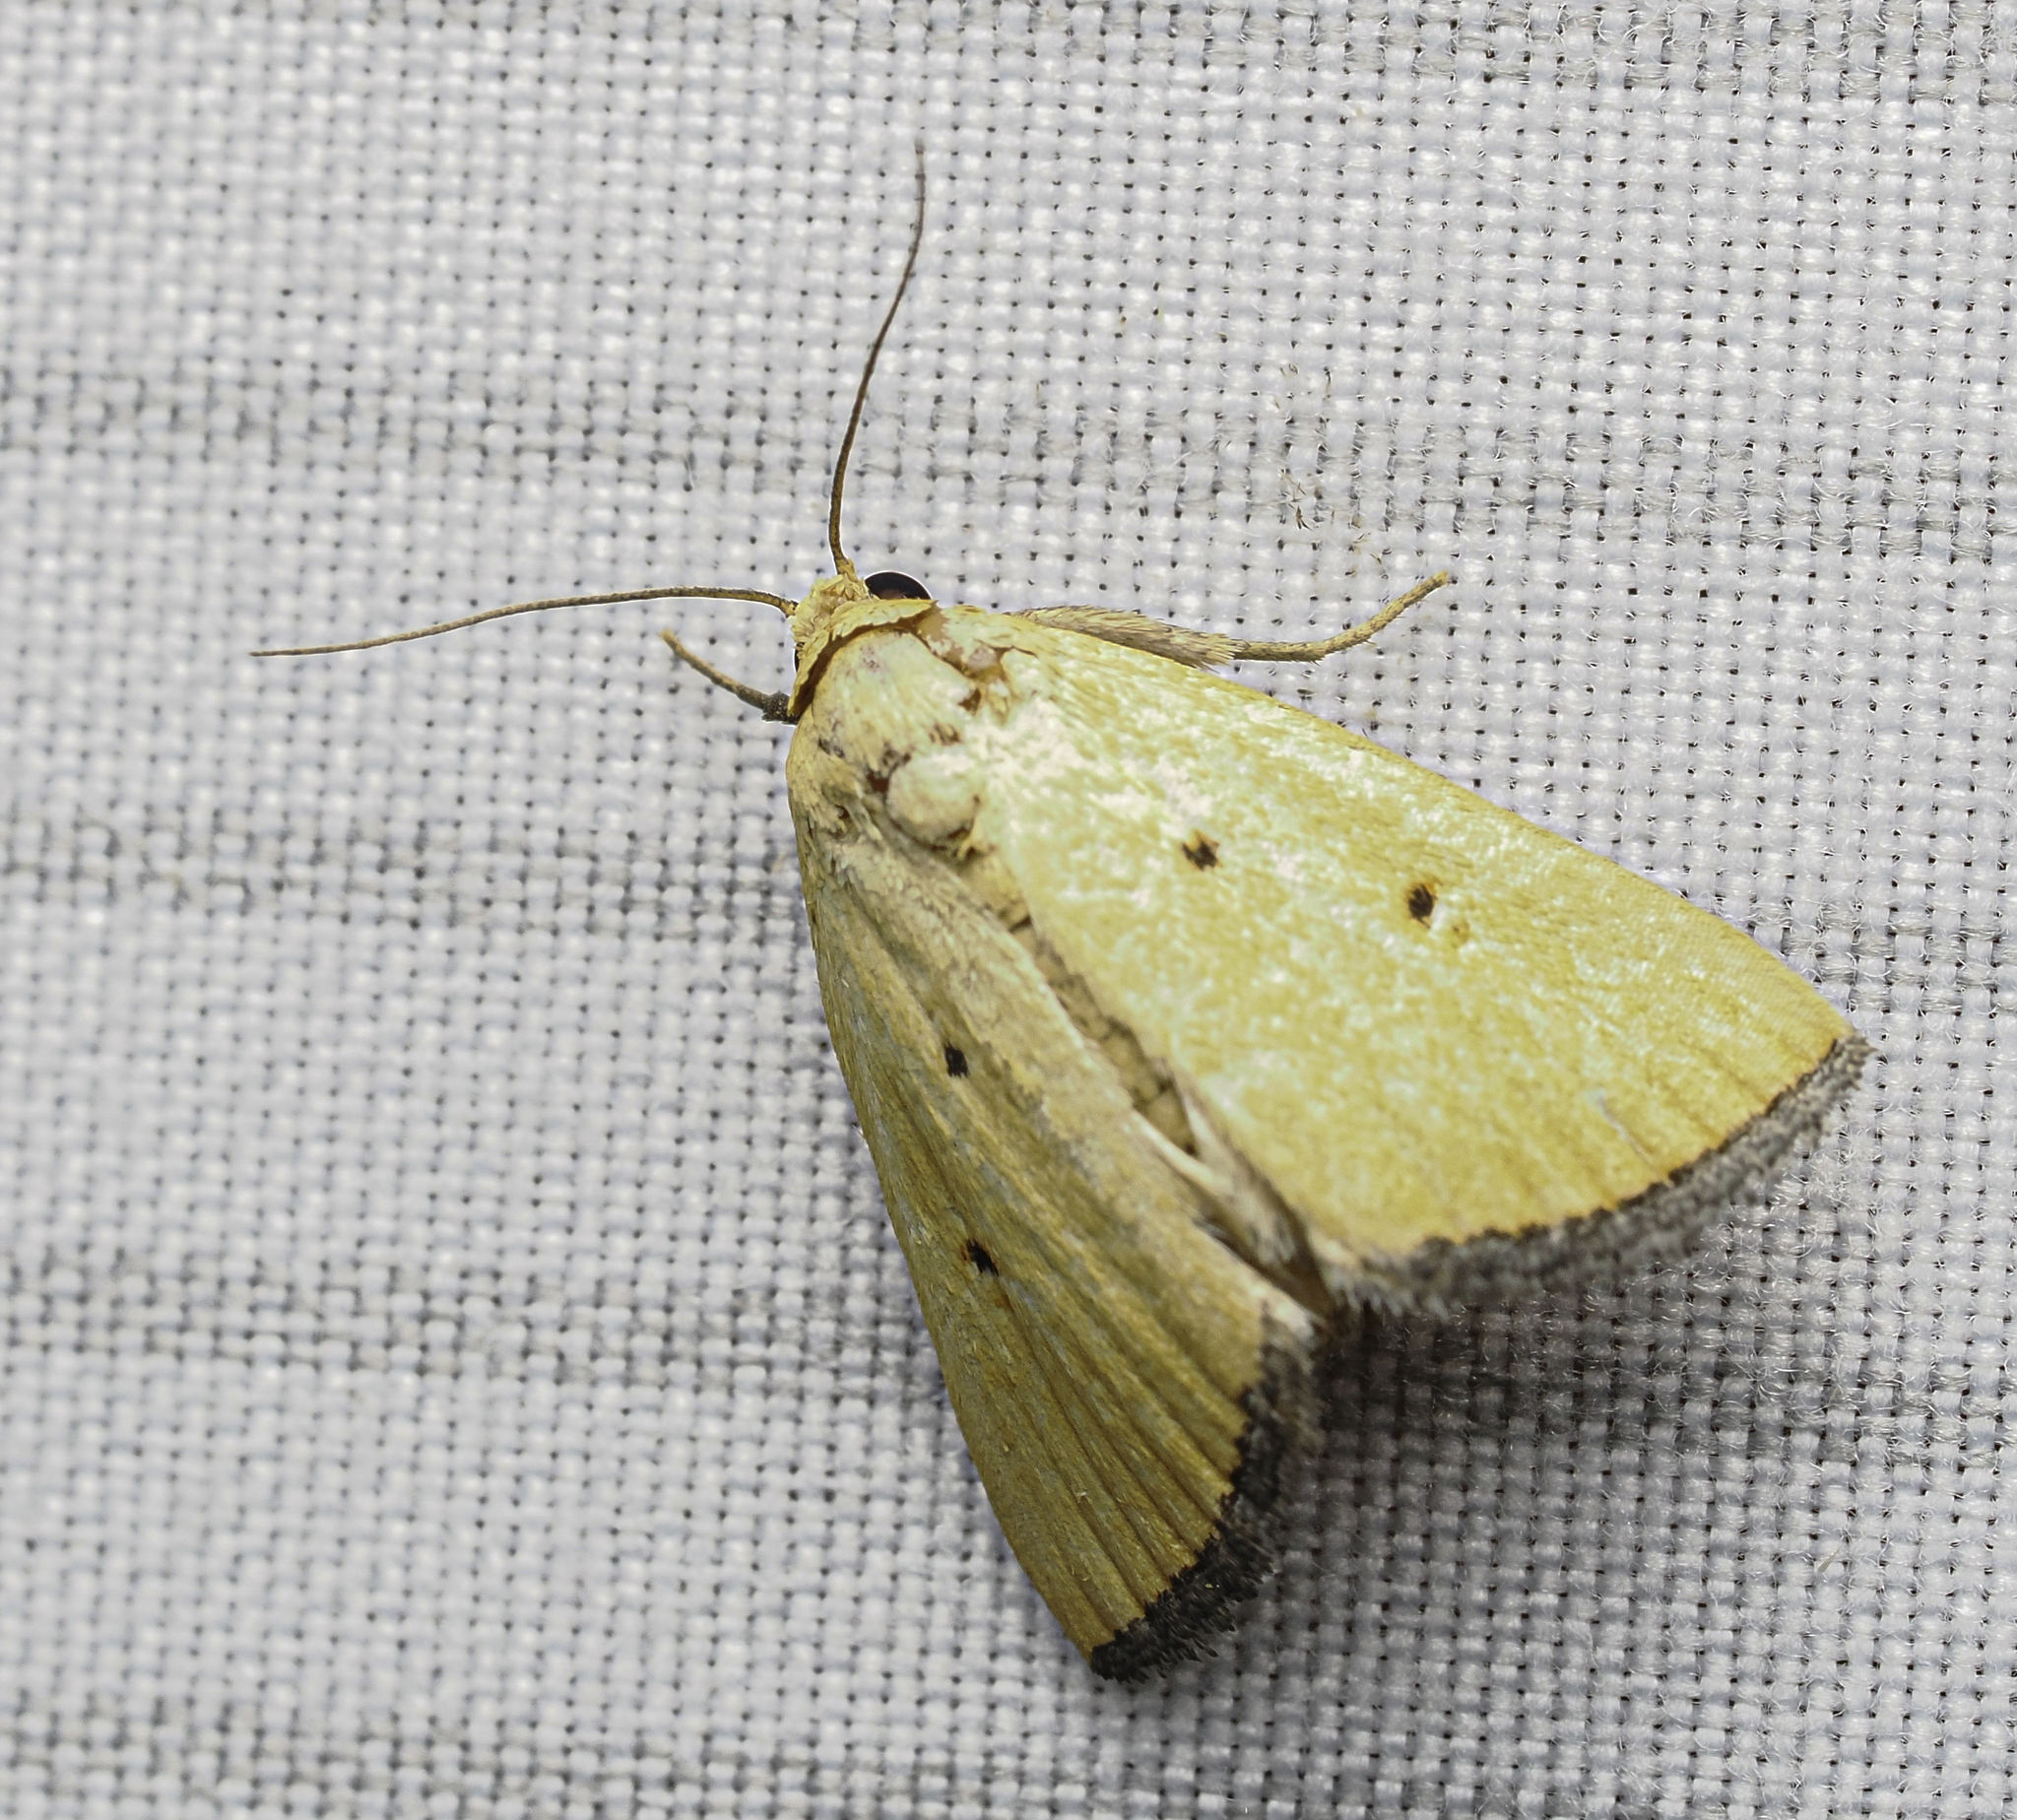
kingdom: Animalia
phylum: Arthropoda
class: Insecta
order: Lepidoptera
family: Noctuidae
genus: Marimatha
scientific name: Marimatha nigrofimbria
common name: Black-bordered lemon moth
